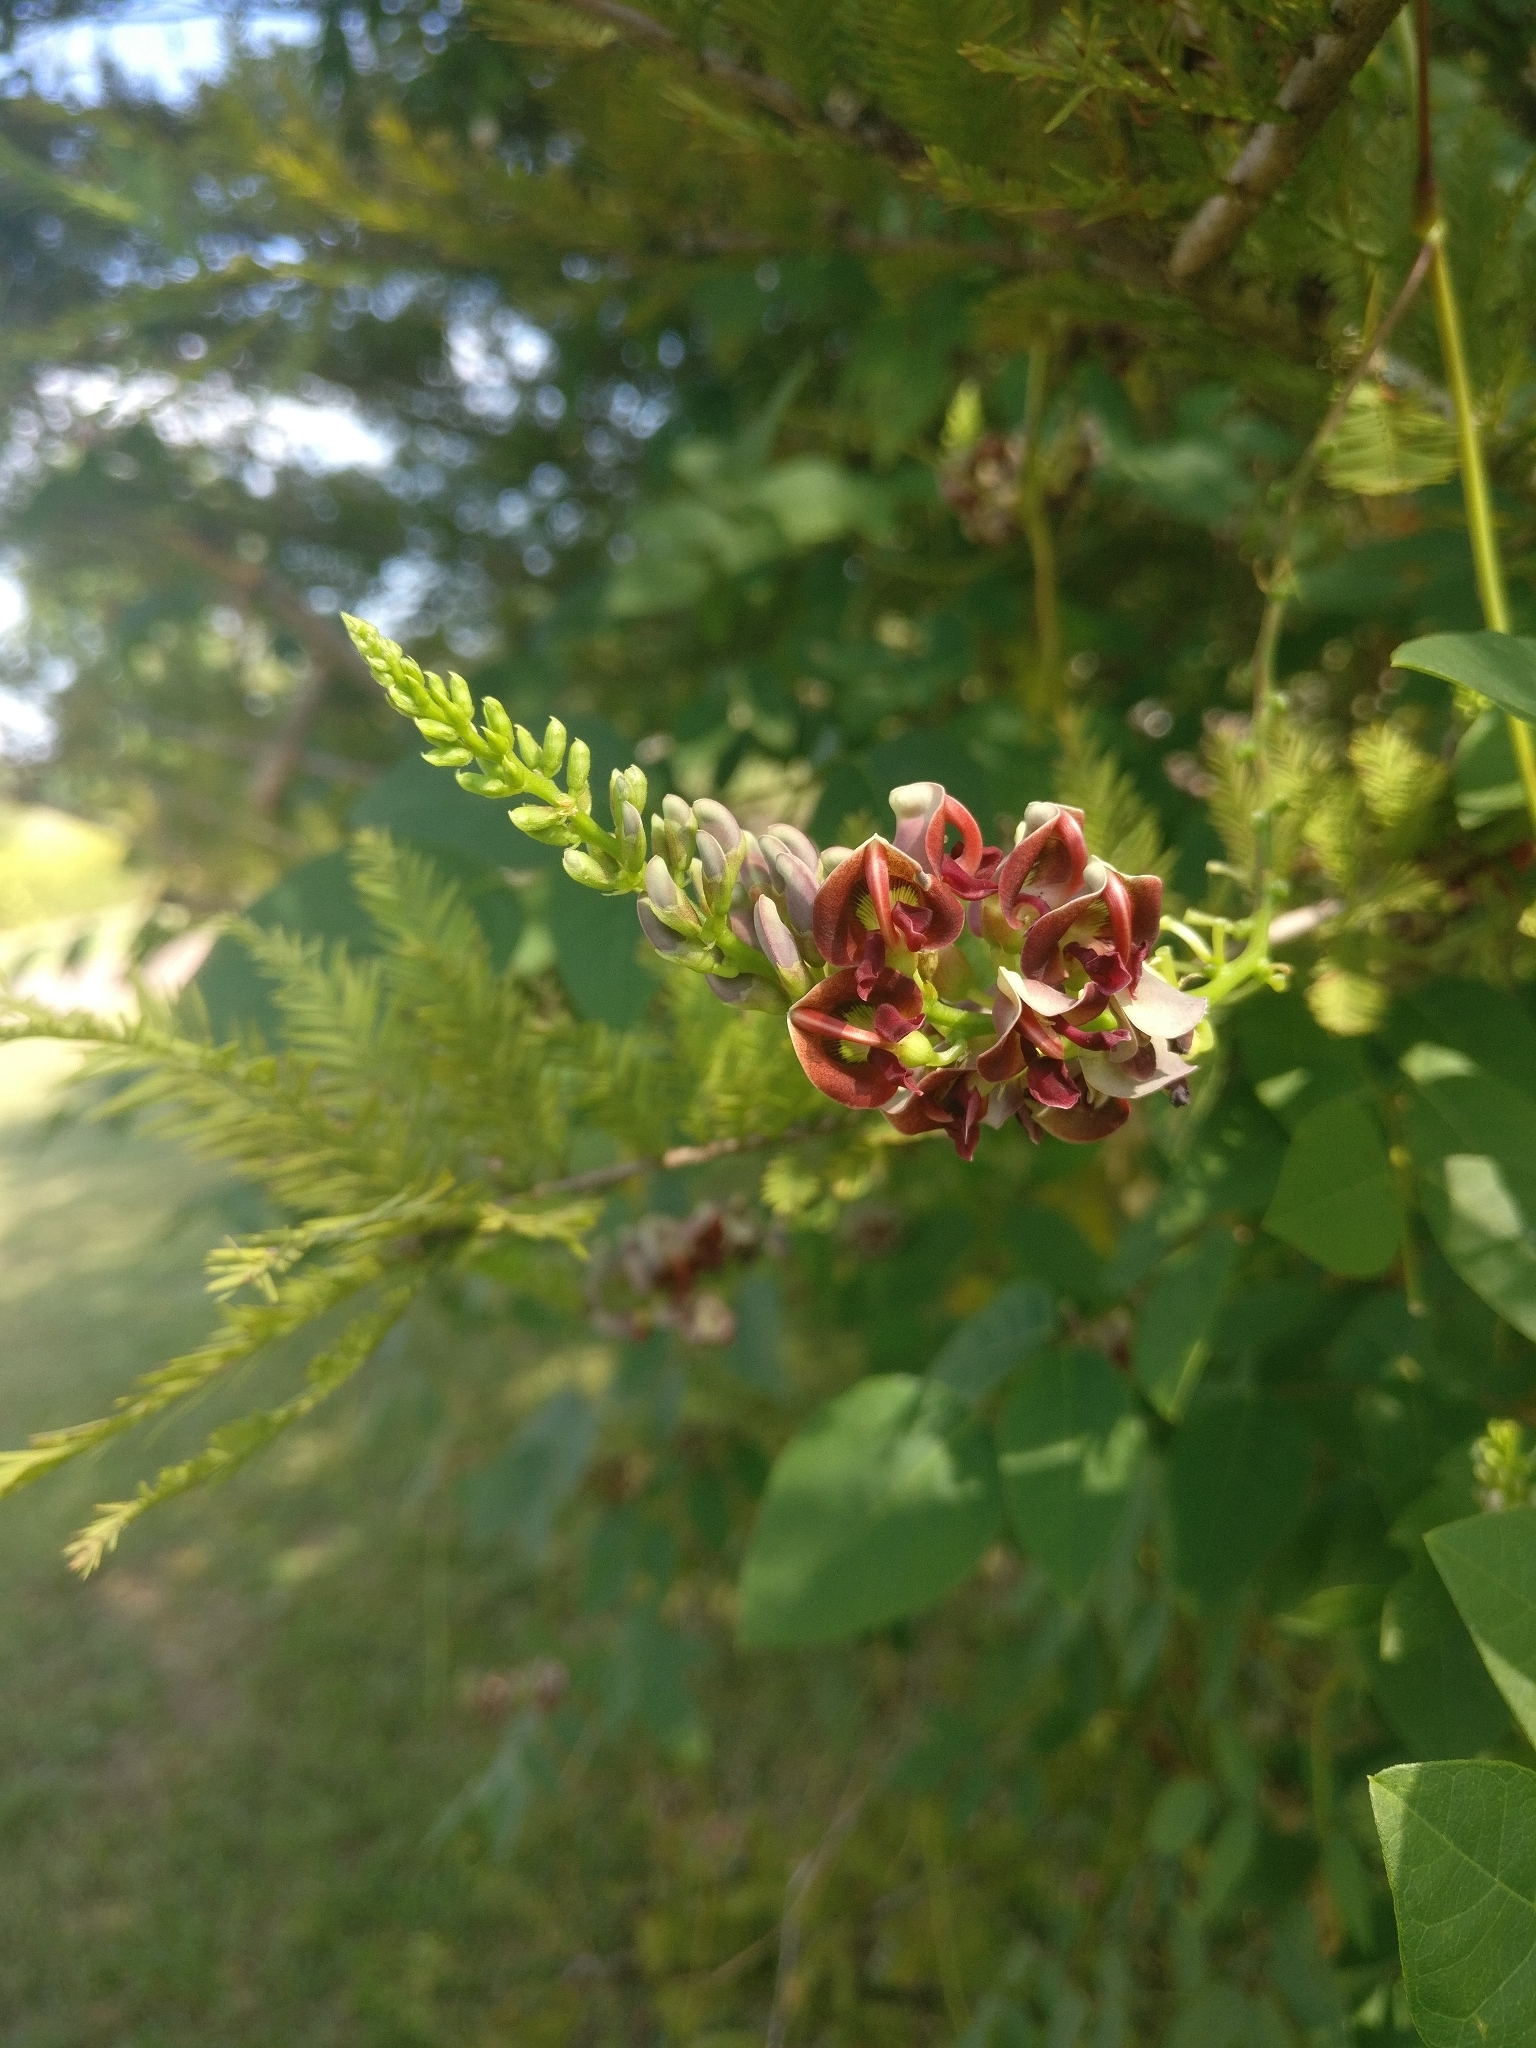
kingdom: Plantae
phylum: Tracheophyta
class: Magnoliopsida
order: Fabales
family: Fabaceae
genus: Apios
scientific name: Apios americana
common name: American potato-bean
